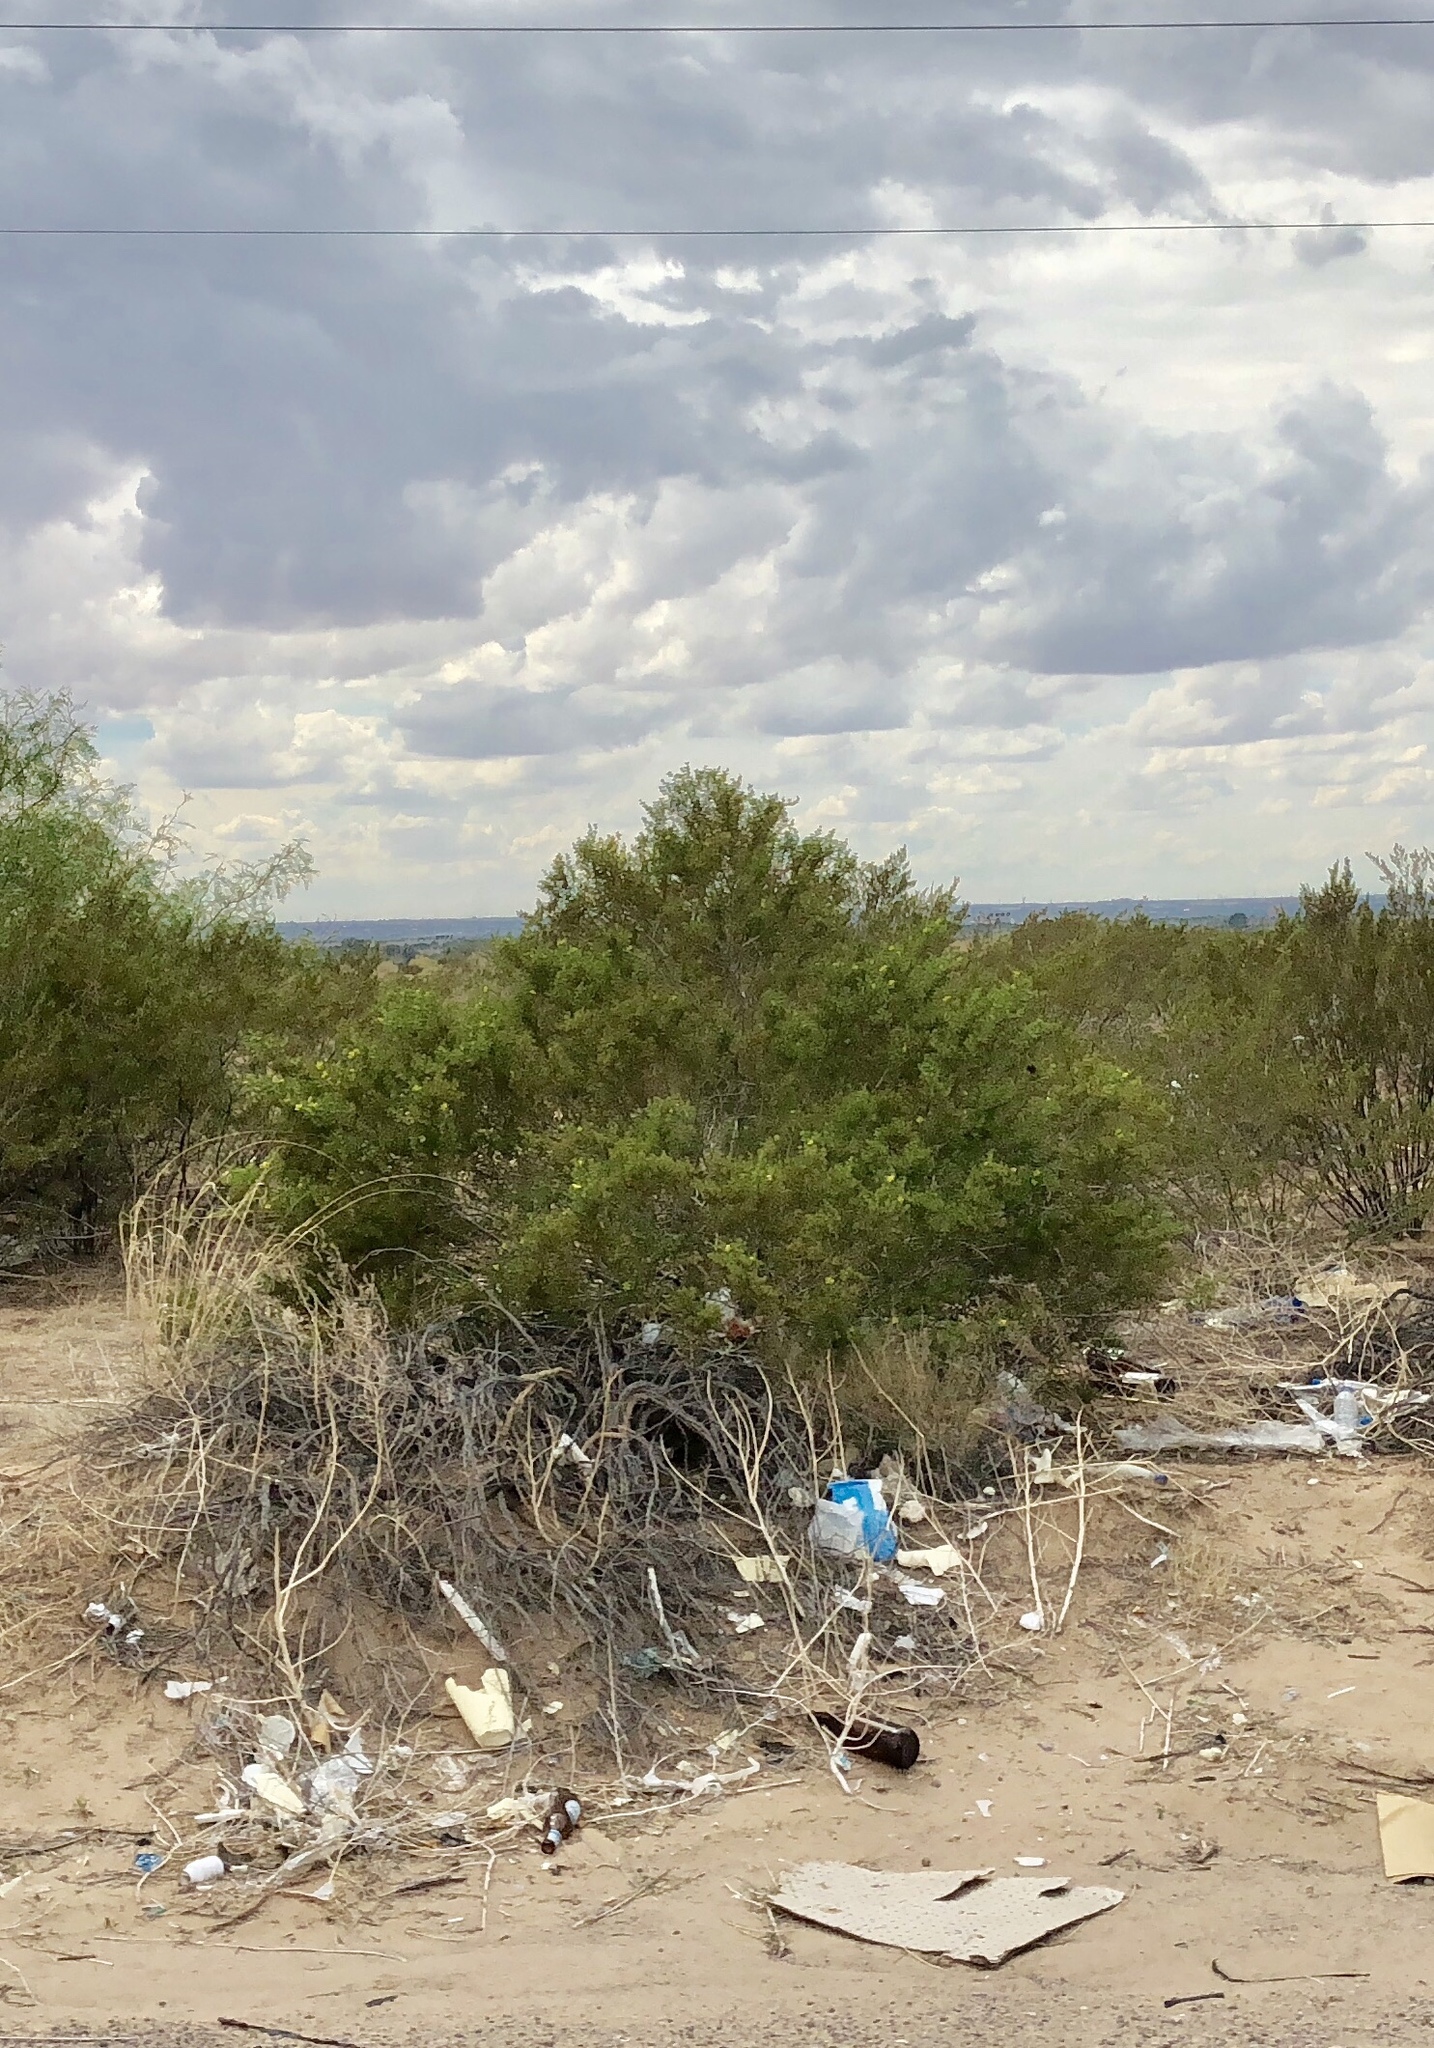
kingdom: Plantae
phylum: Tracheophyta
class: Magnoliopsida
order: Zygophyllales
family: Zygophyllaceae
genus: Larrea
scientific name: Larrea tridentata
